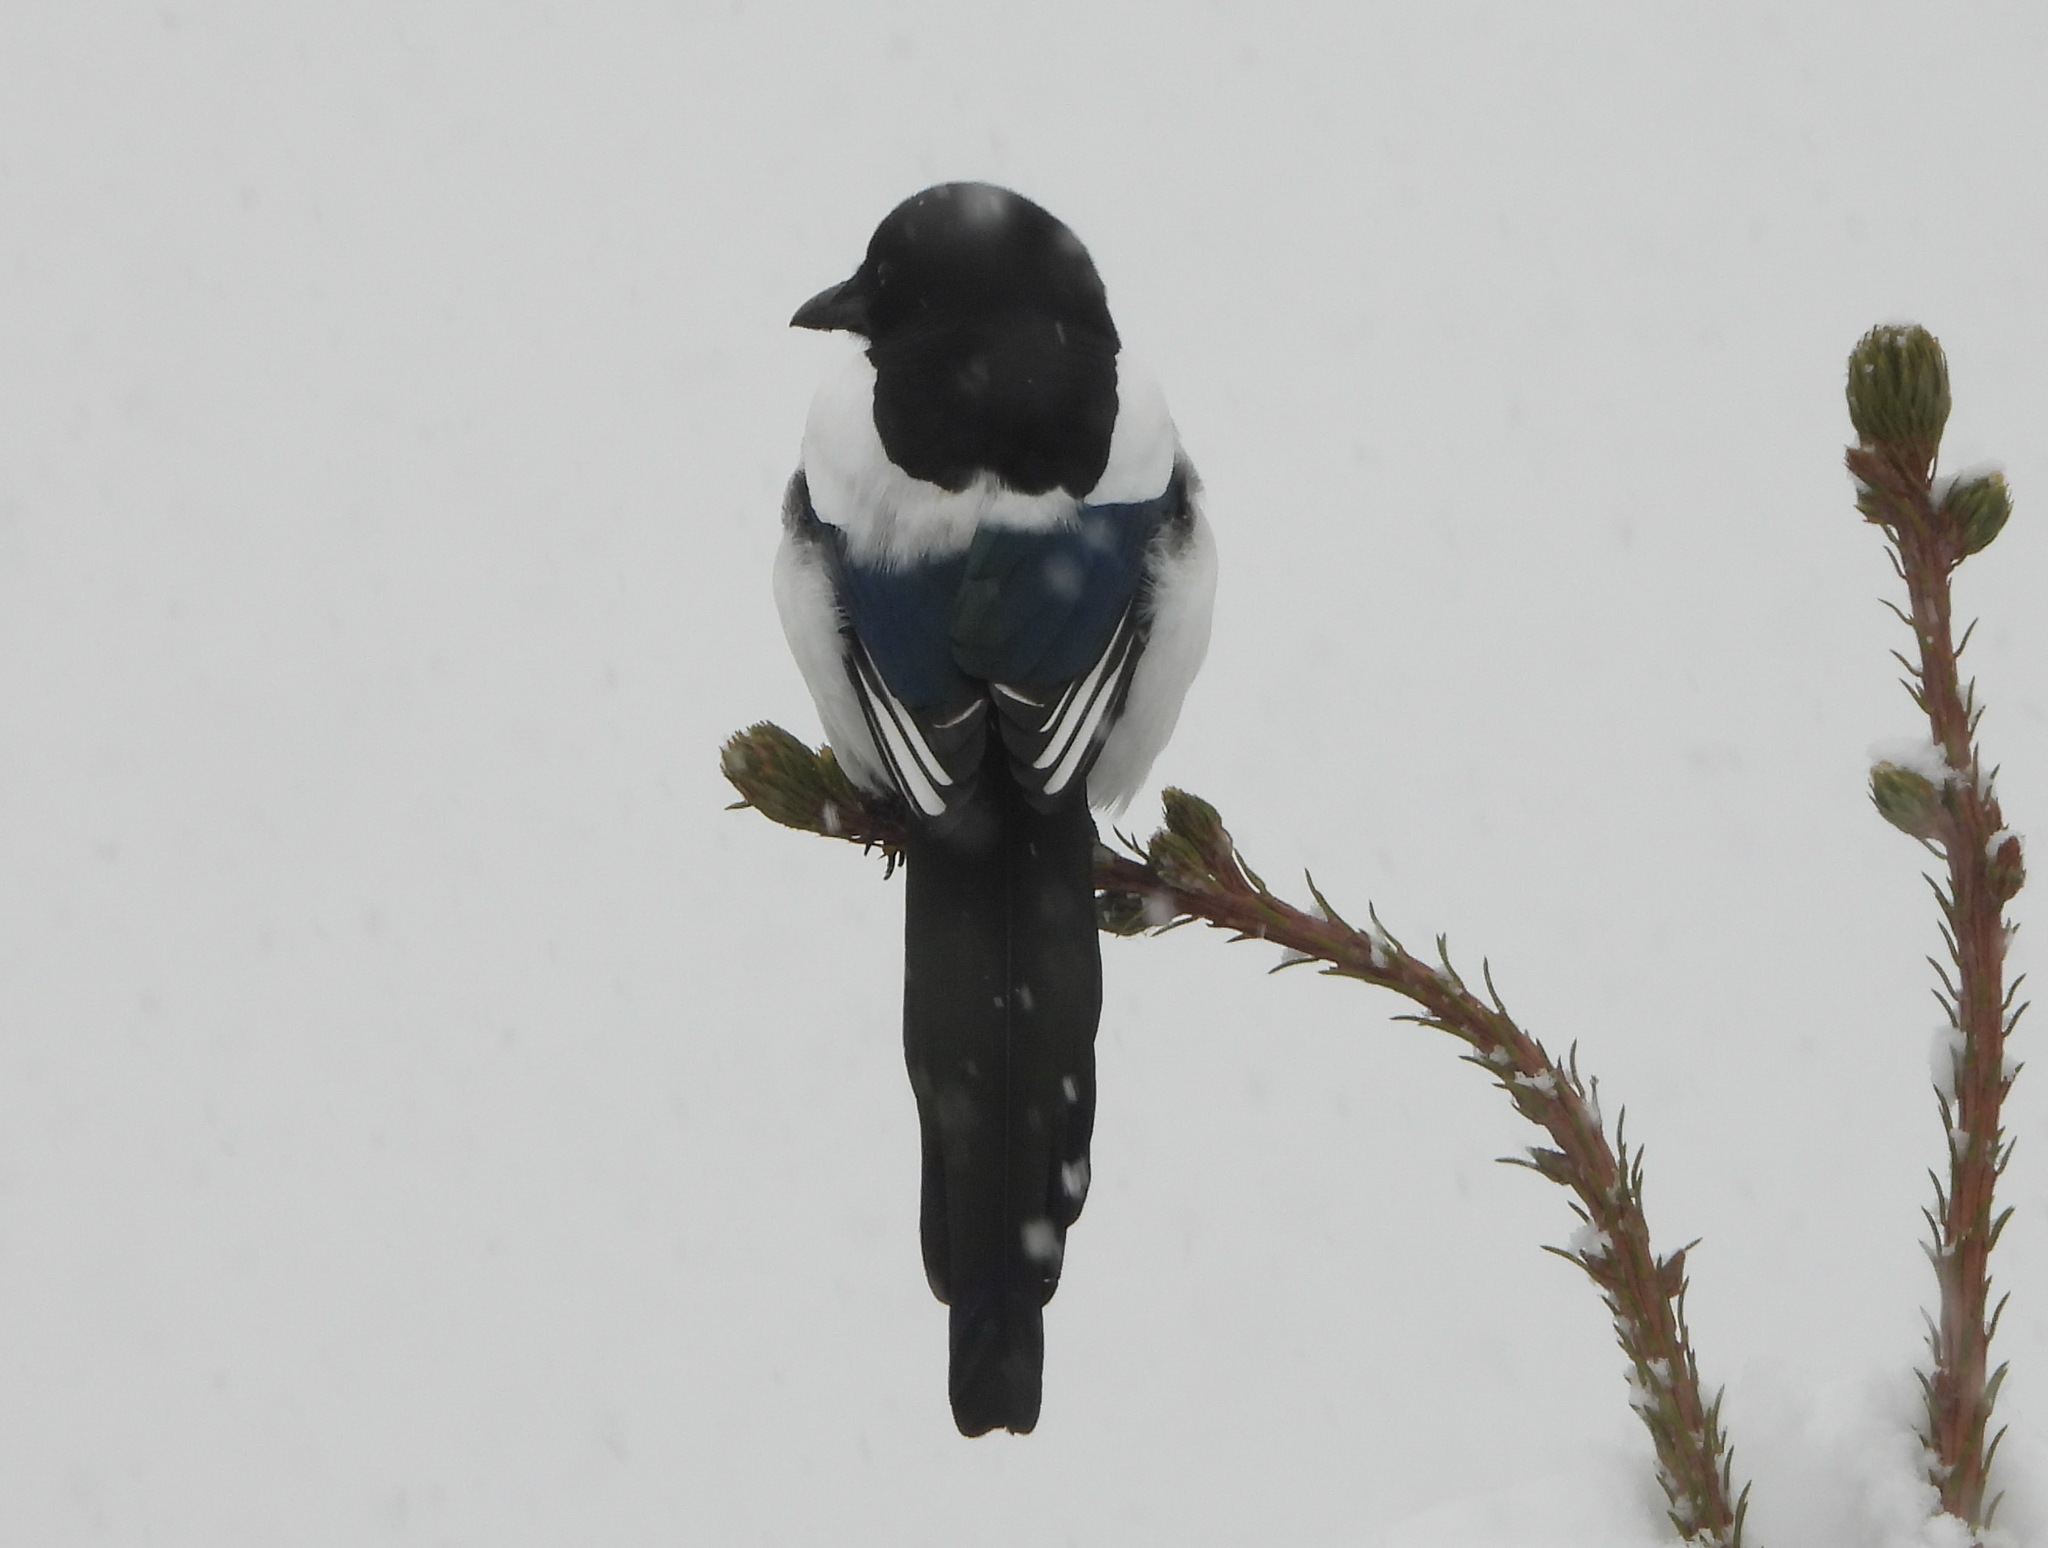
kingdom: Animalia
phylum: Chordata
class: Aves
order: Passeriformes
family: Corvidae
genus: Pica
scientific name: Pica pica
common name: Eurasian magpie
